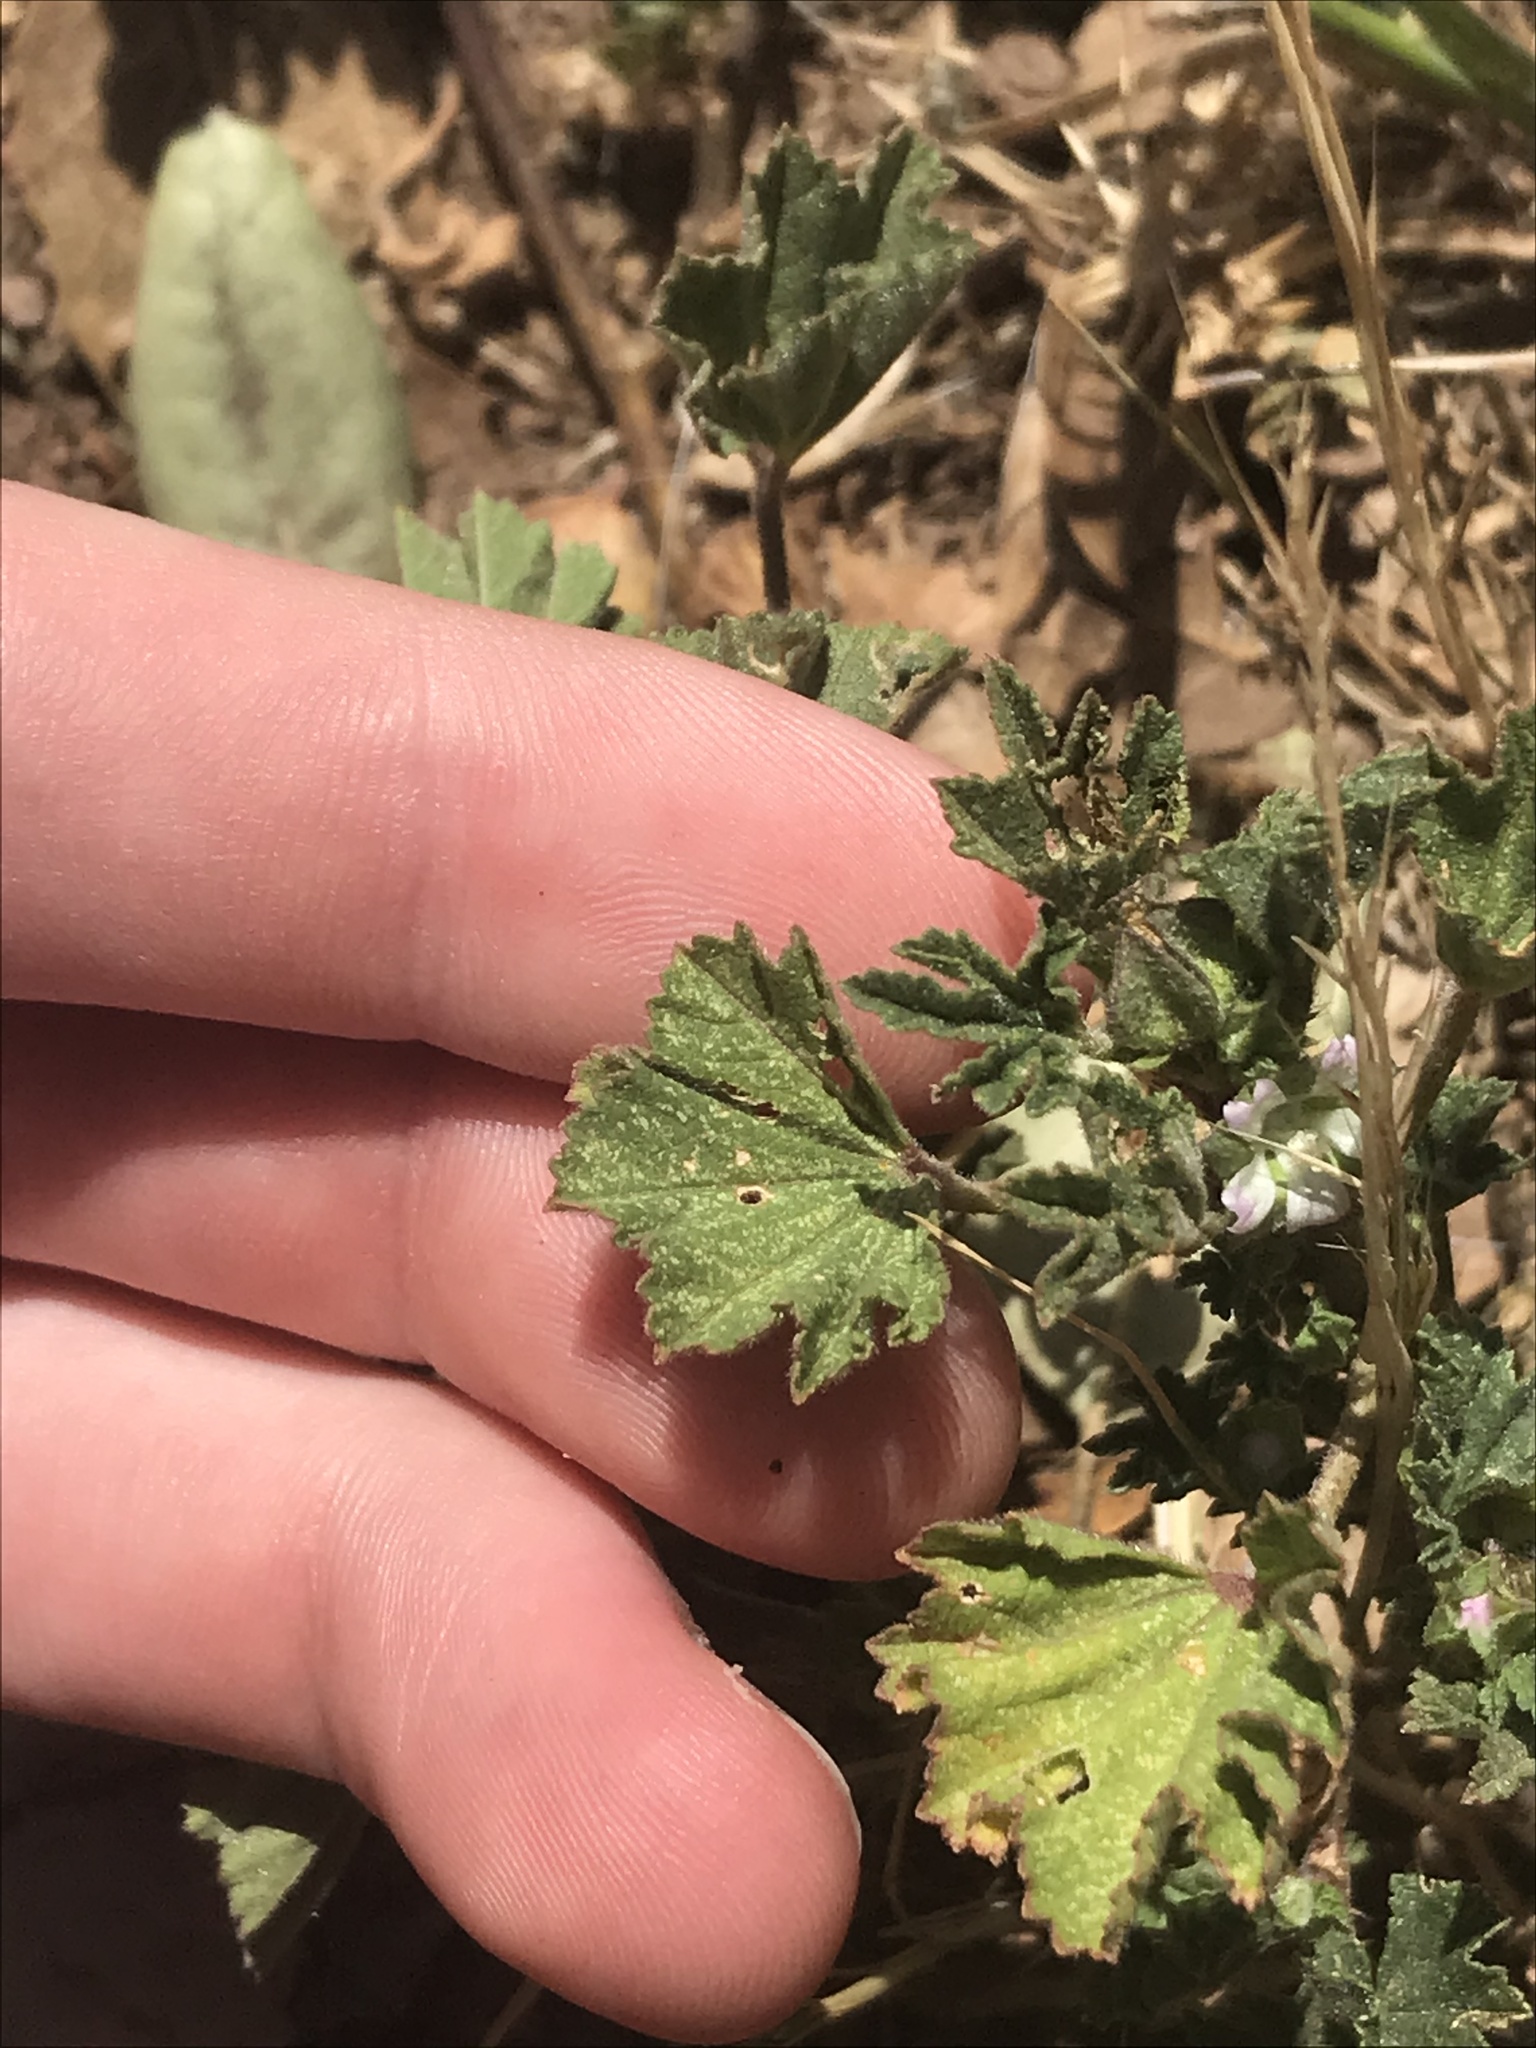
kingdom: Plantae
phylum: Tracheophyta
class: Magnoliopsida
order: Malvales
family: Malvaceae
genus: Malva
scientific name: Malva parviflora
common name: Least mallow
